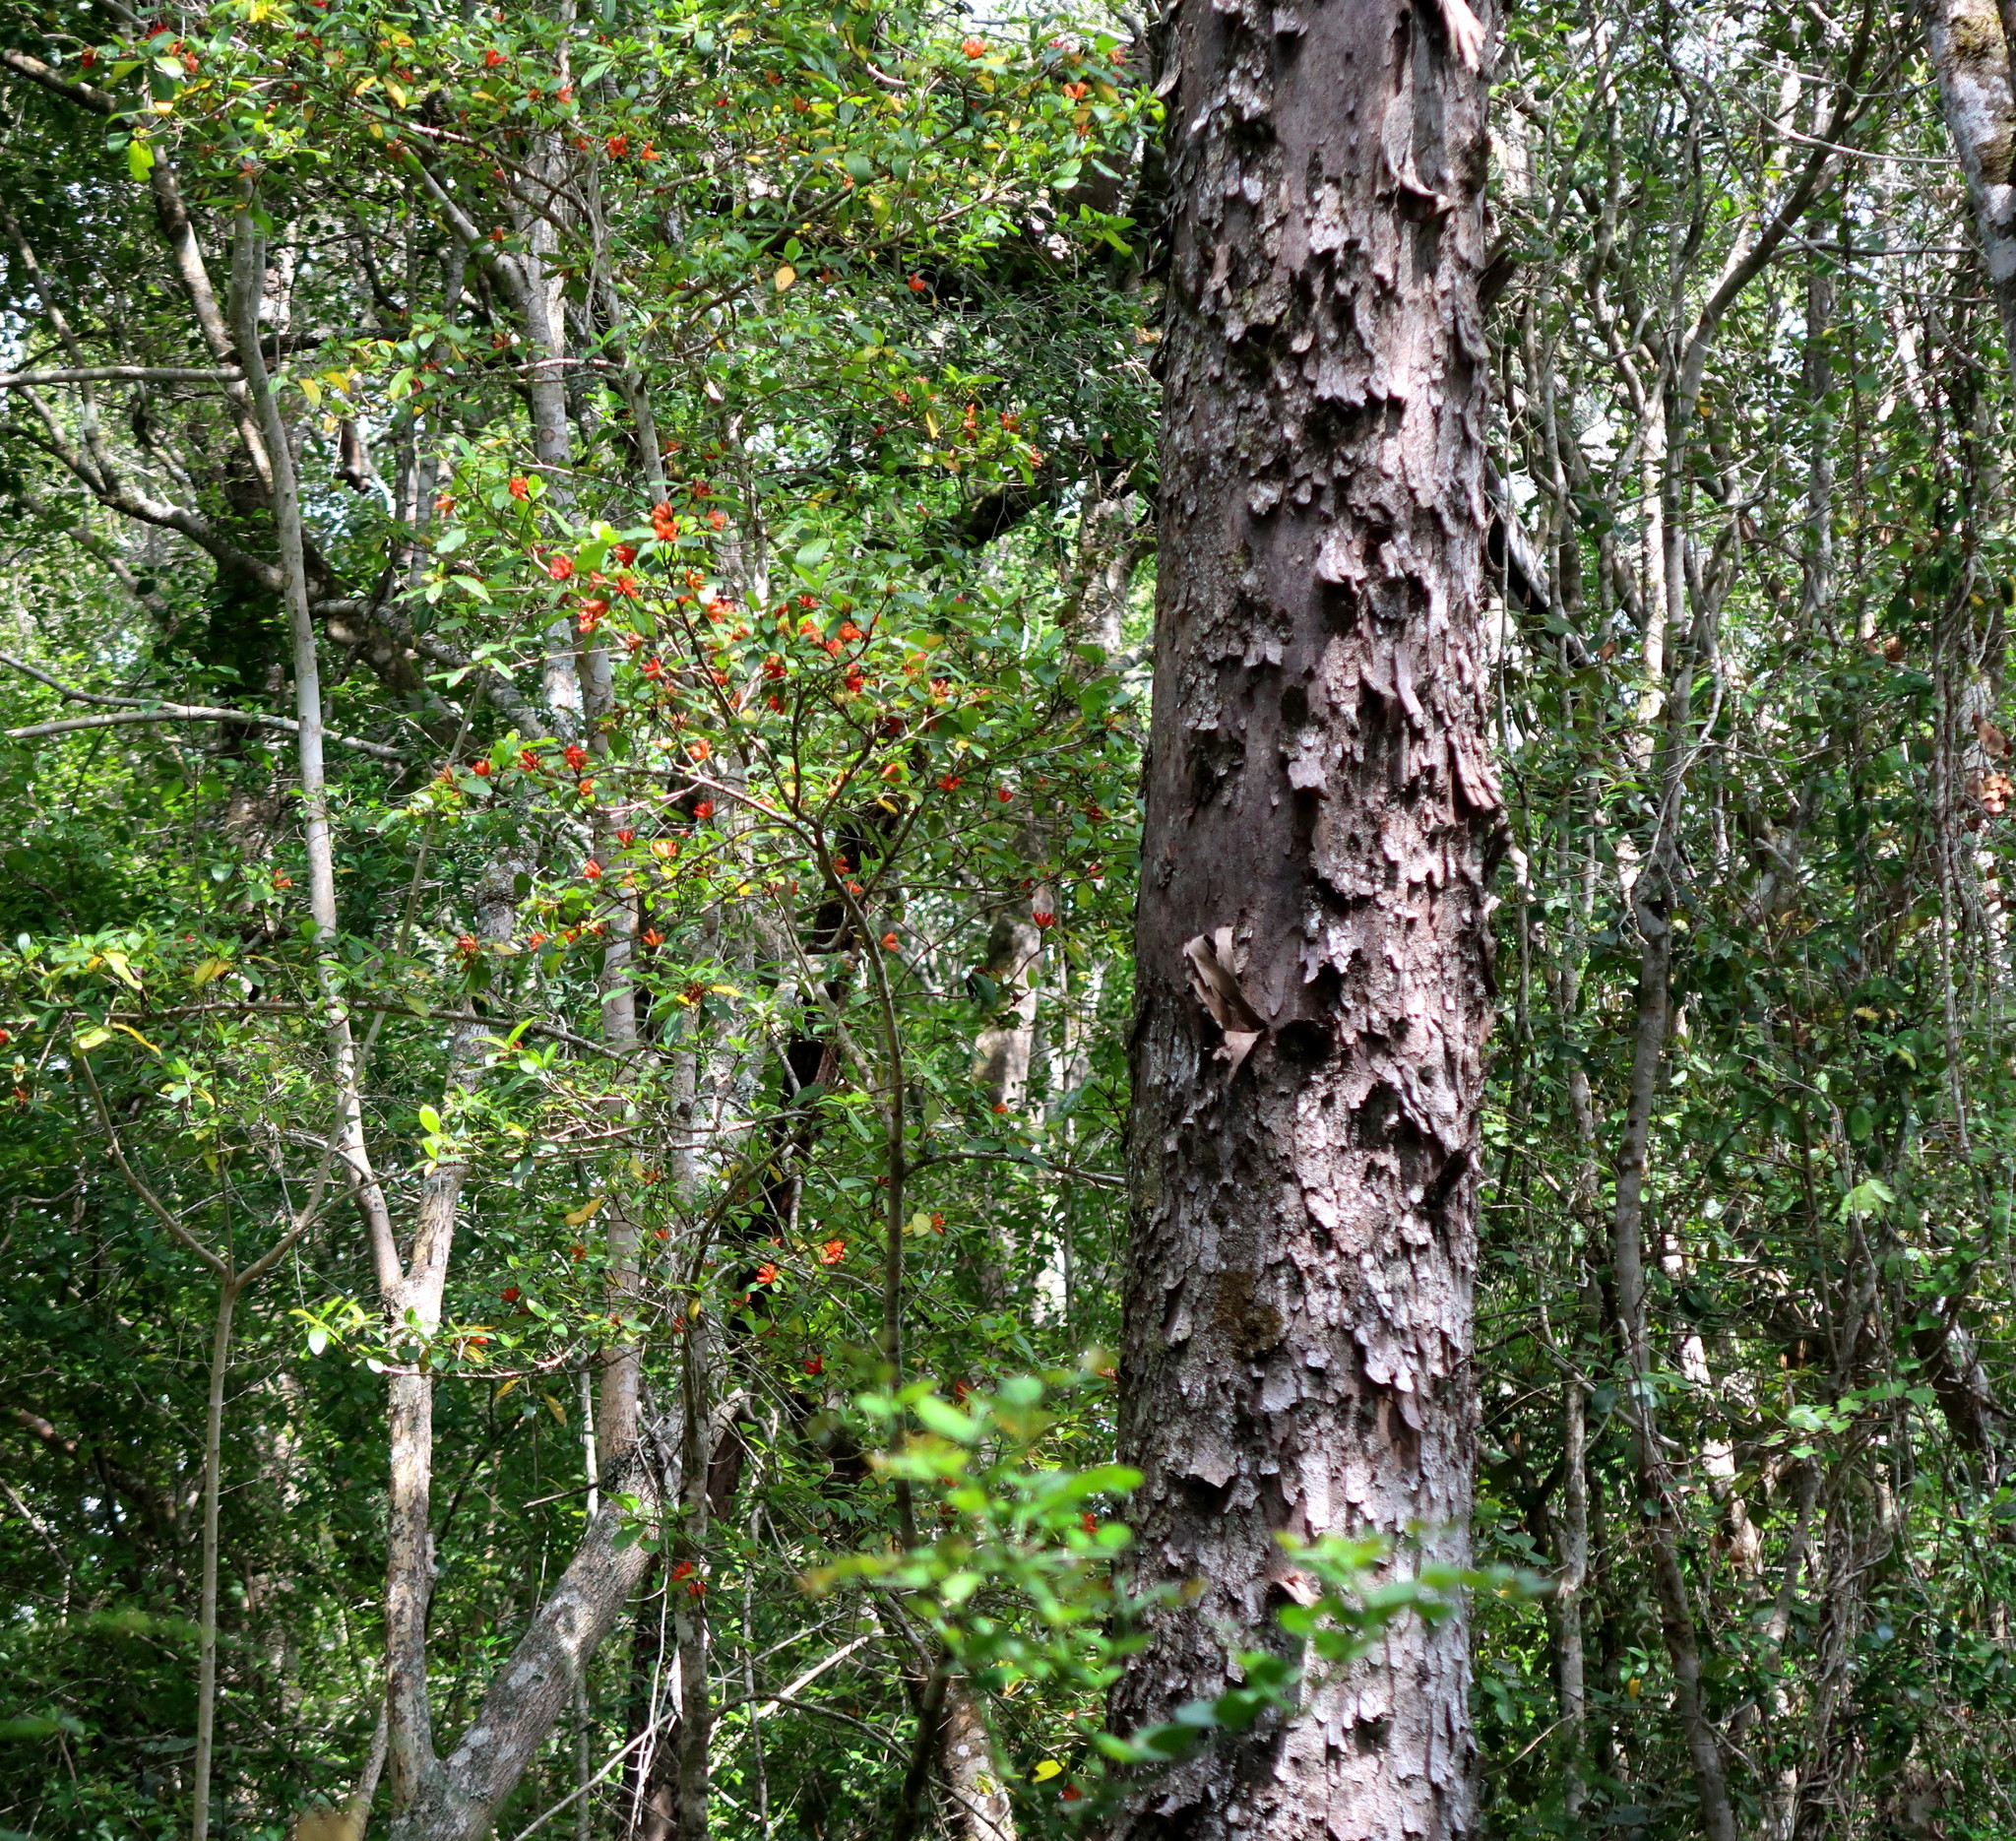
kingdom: Plantae
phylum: Tracheophyta
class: Magnoliopsida
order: Gentianales
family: Rubiaceae
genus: Burchellia
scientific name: Burchellia bubalina
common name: Wild pomegranate
